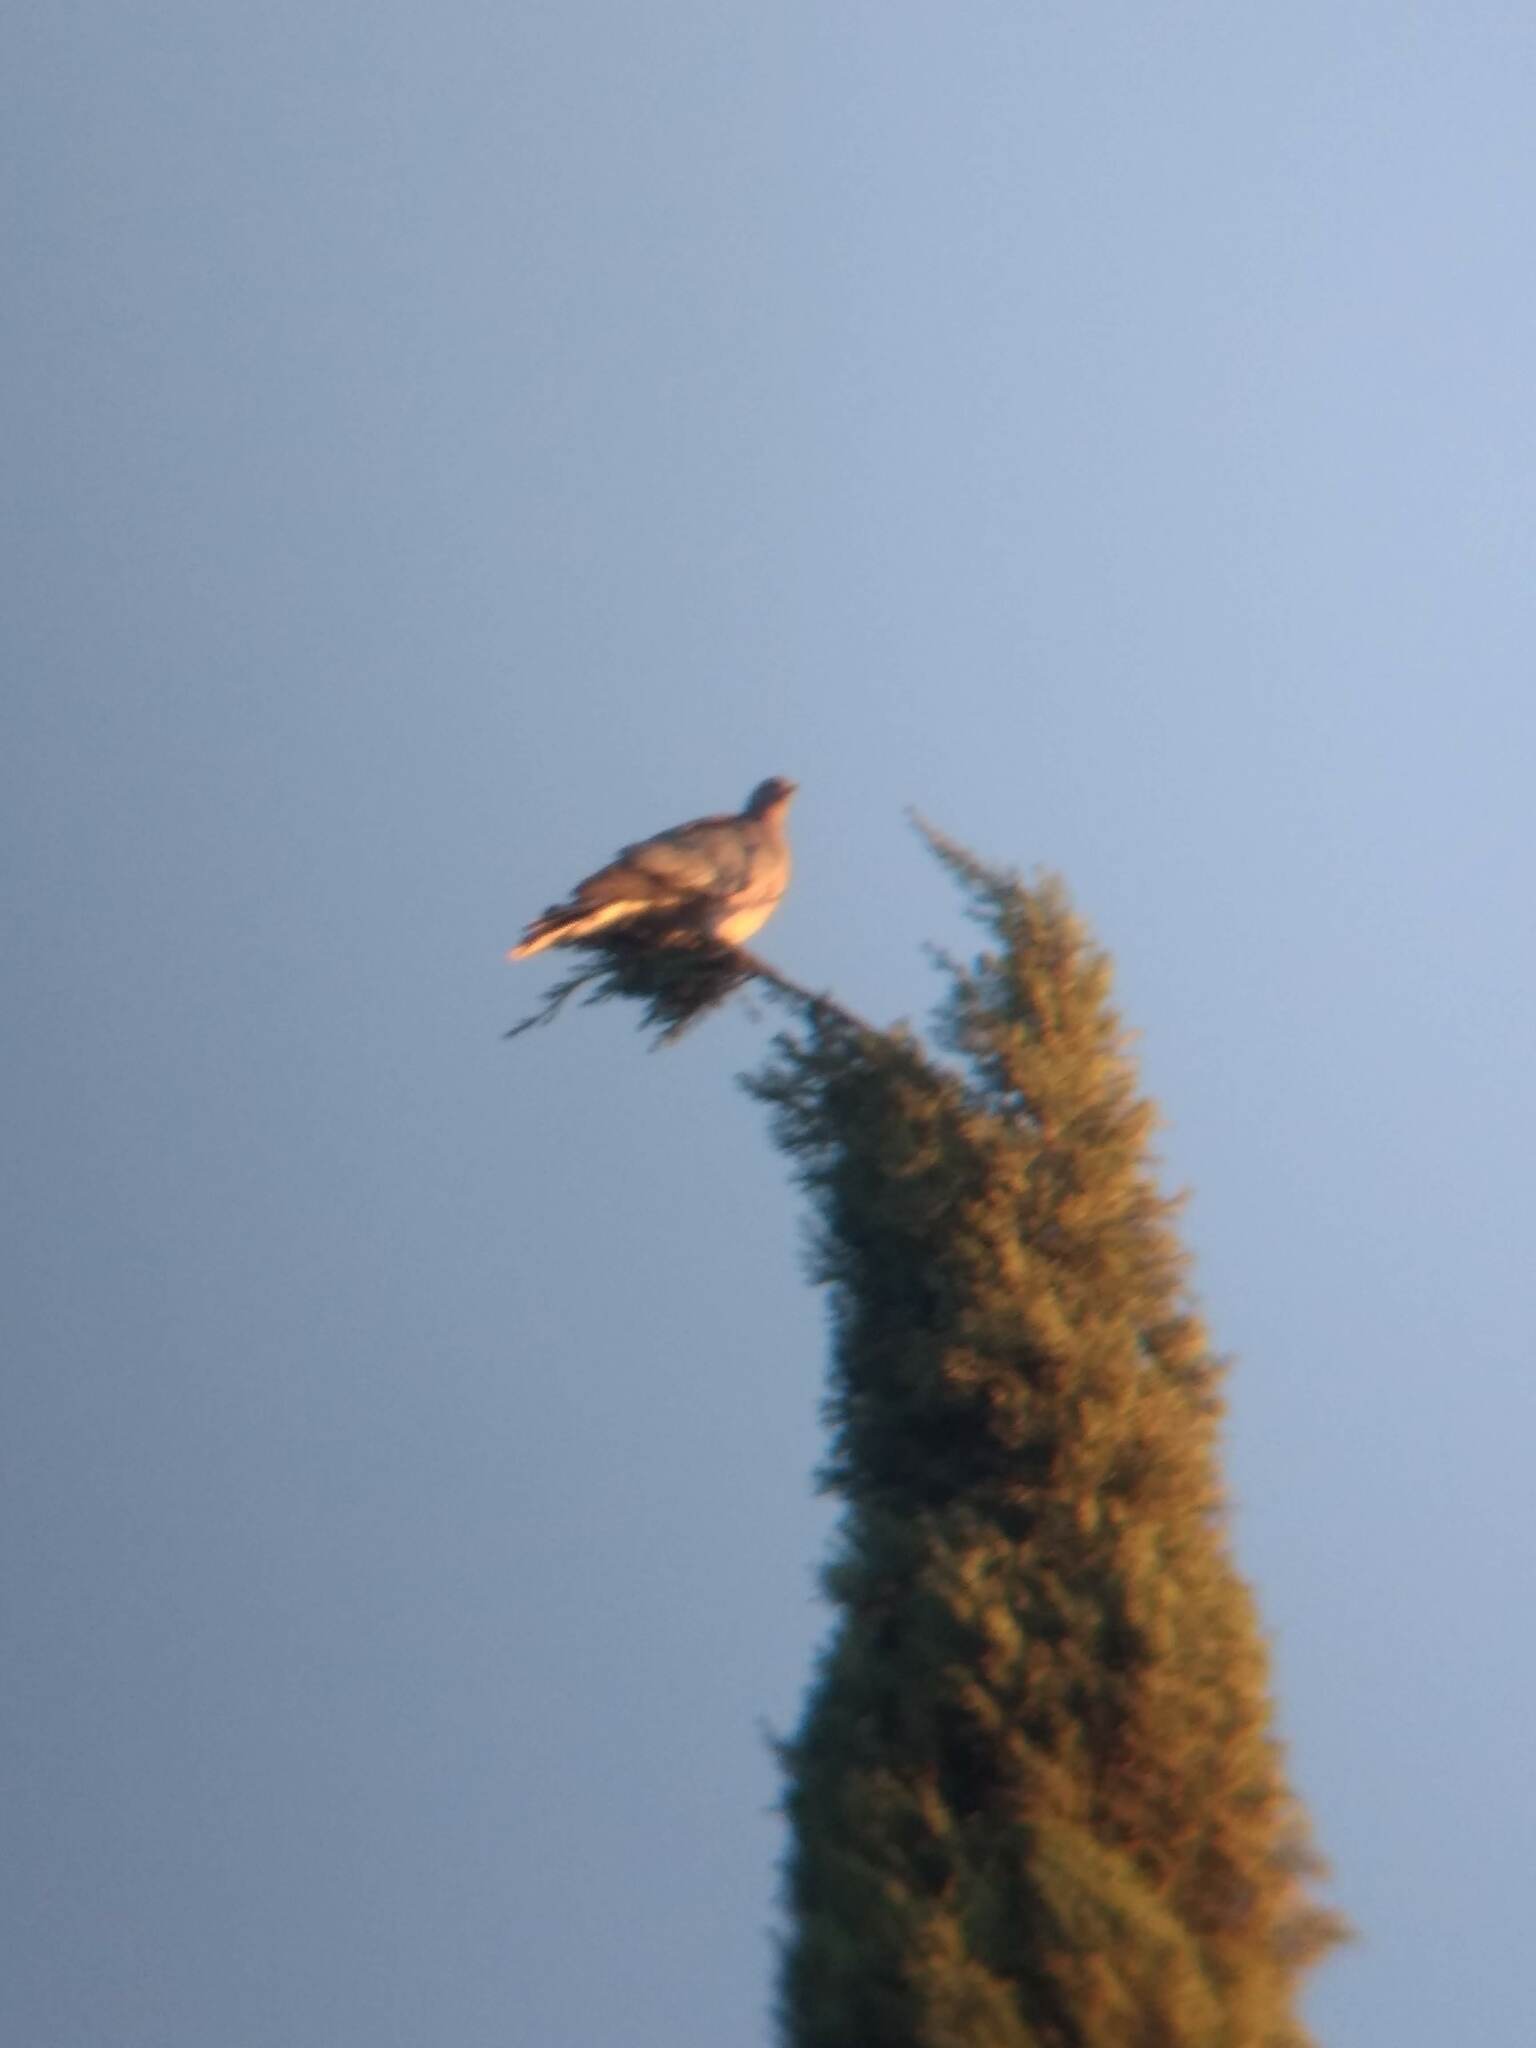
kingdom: Animalia
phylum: Chordata
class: Aves
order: Columbiformes
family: Columbidae
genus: Patagioenas
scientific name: Patagioenas fasciata
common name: Band-tailed pigeon
